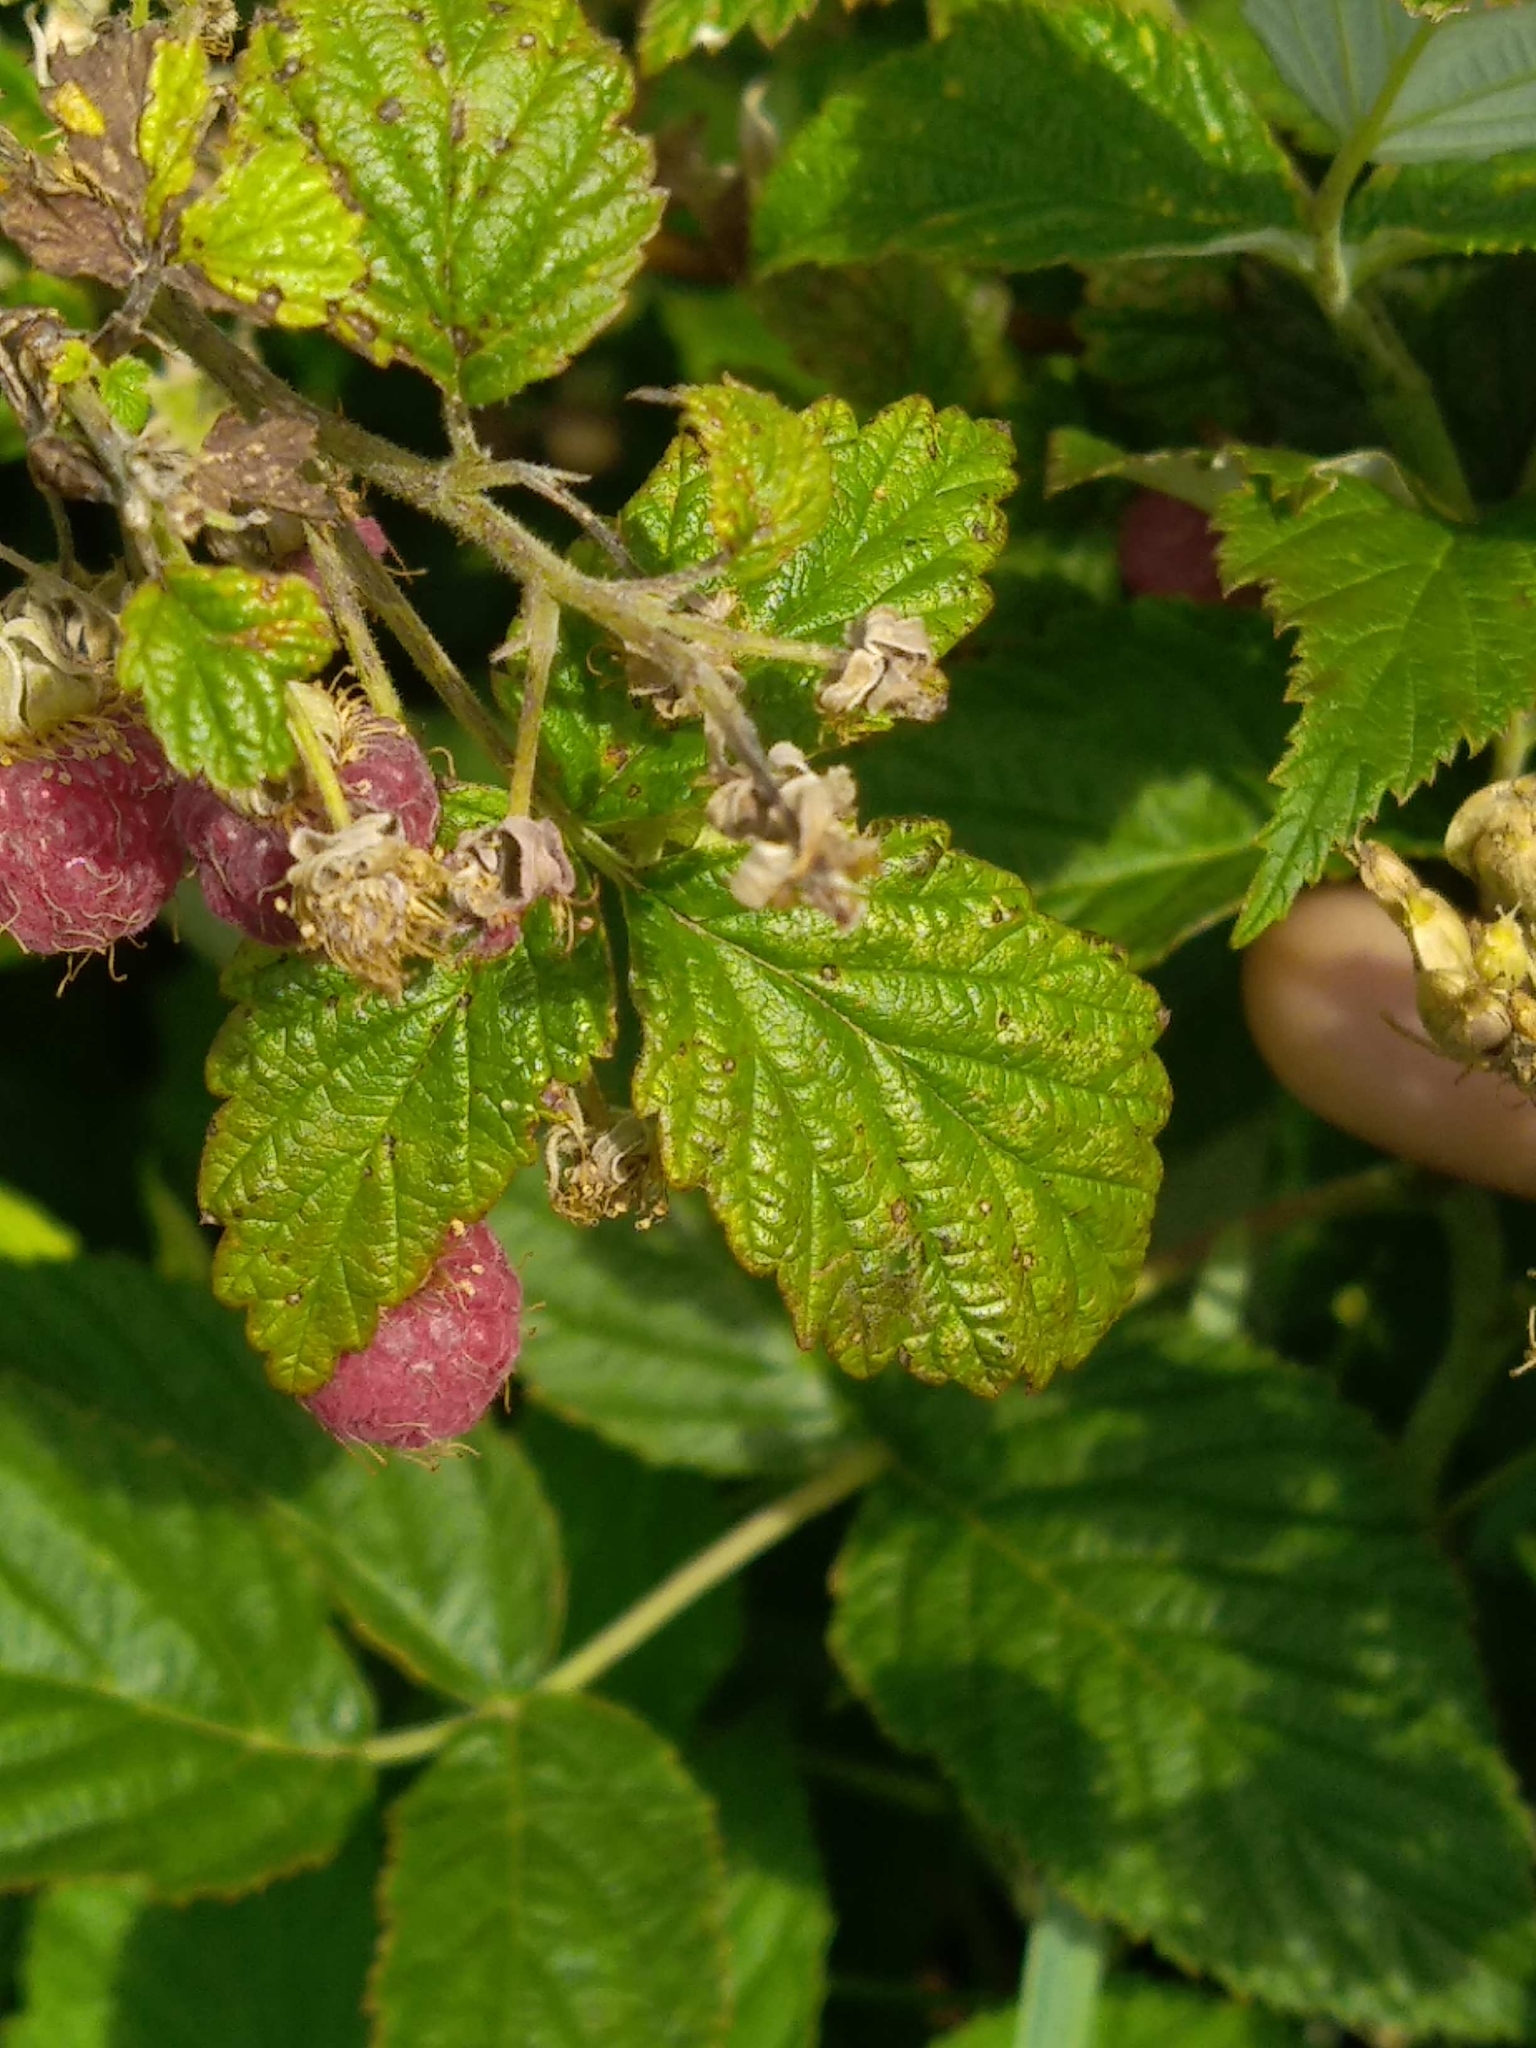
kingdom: Plantae
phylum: Tracheophyta
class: Magnoliopsida
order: Rosales
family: Rosaceae
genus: Rubus
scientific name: Rubus idaeus
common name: Raspberry
